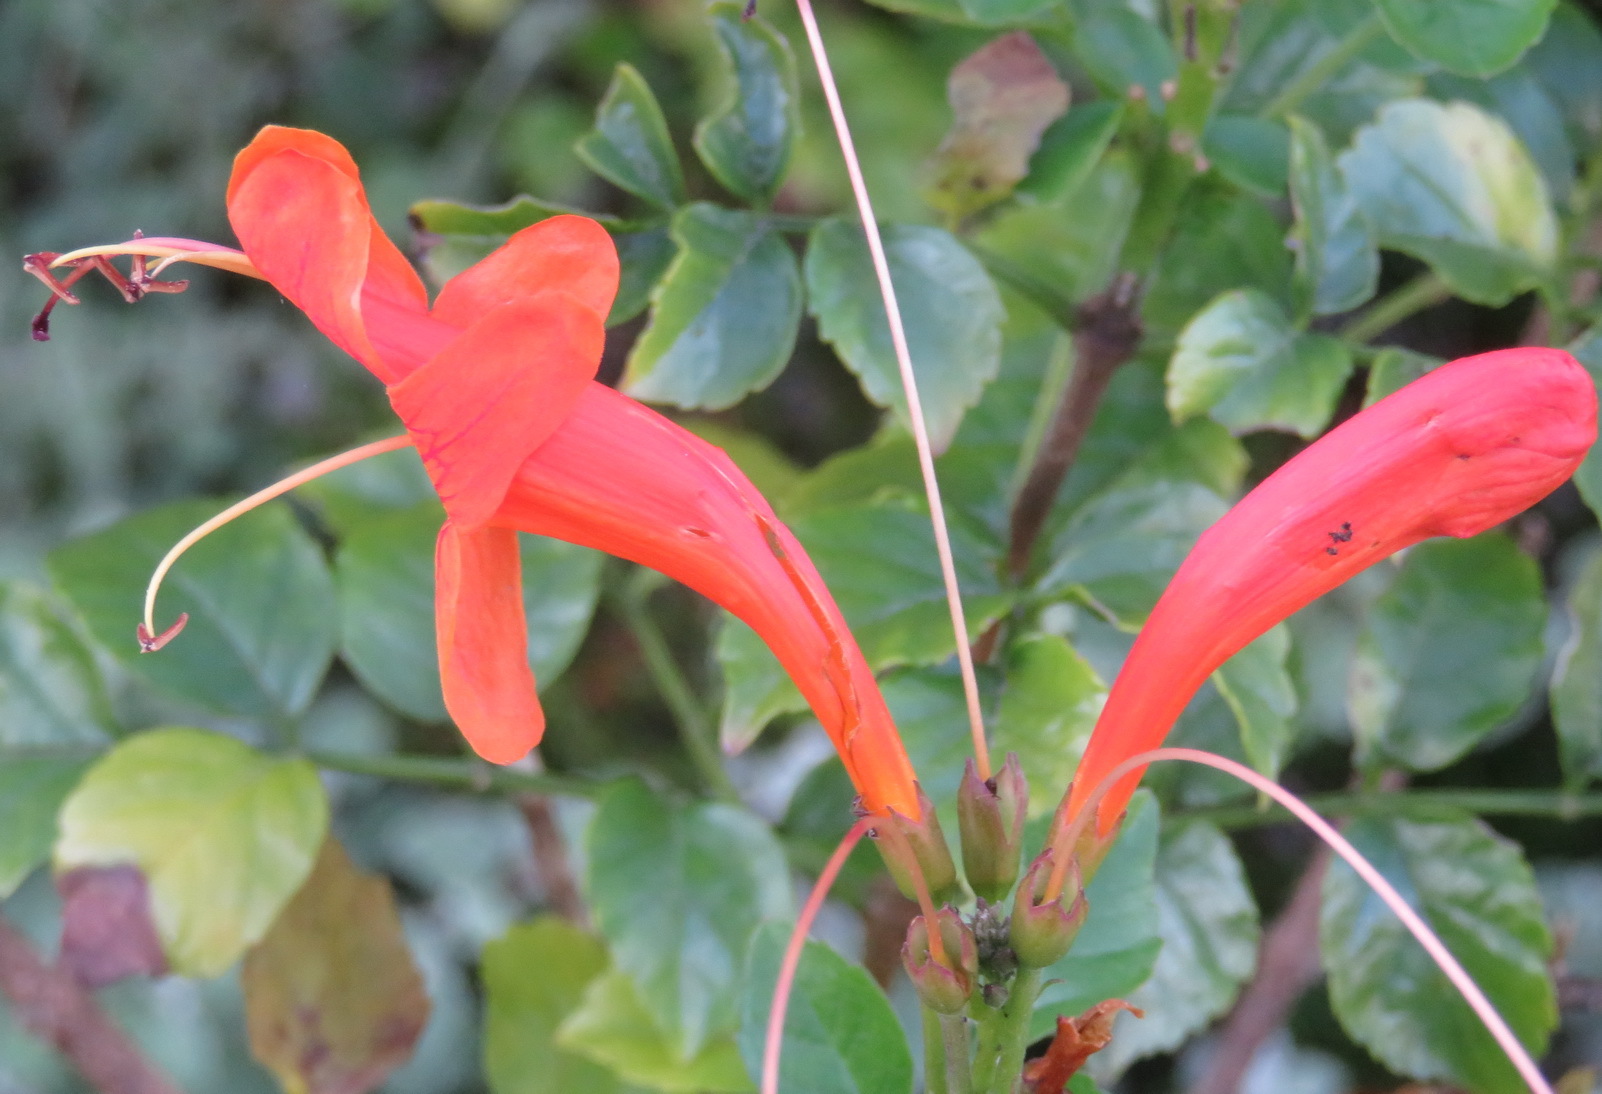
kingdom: Plantae
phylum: Tracheophyta
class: Magnoliopsida
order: Lamiales
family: Bignoniaceae
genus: Tecomaria
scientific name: Tecomaria capensis
